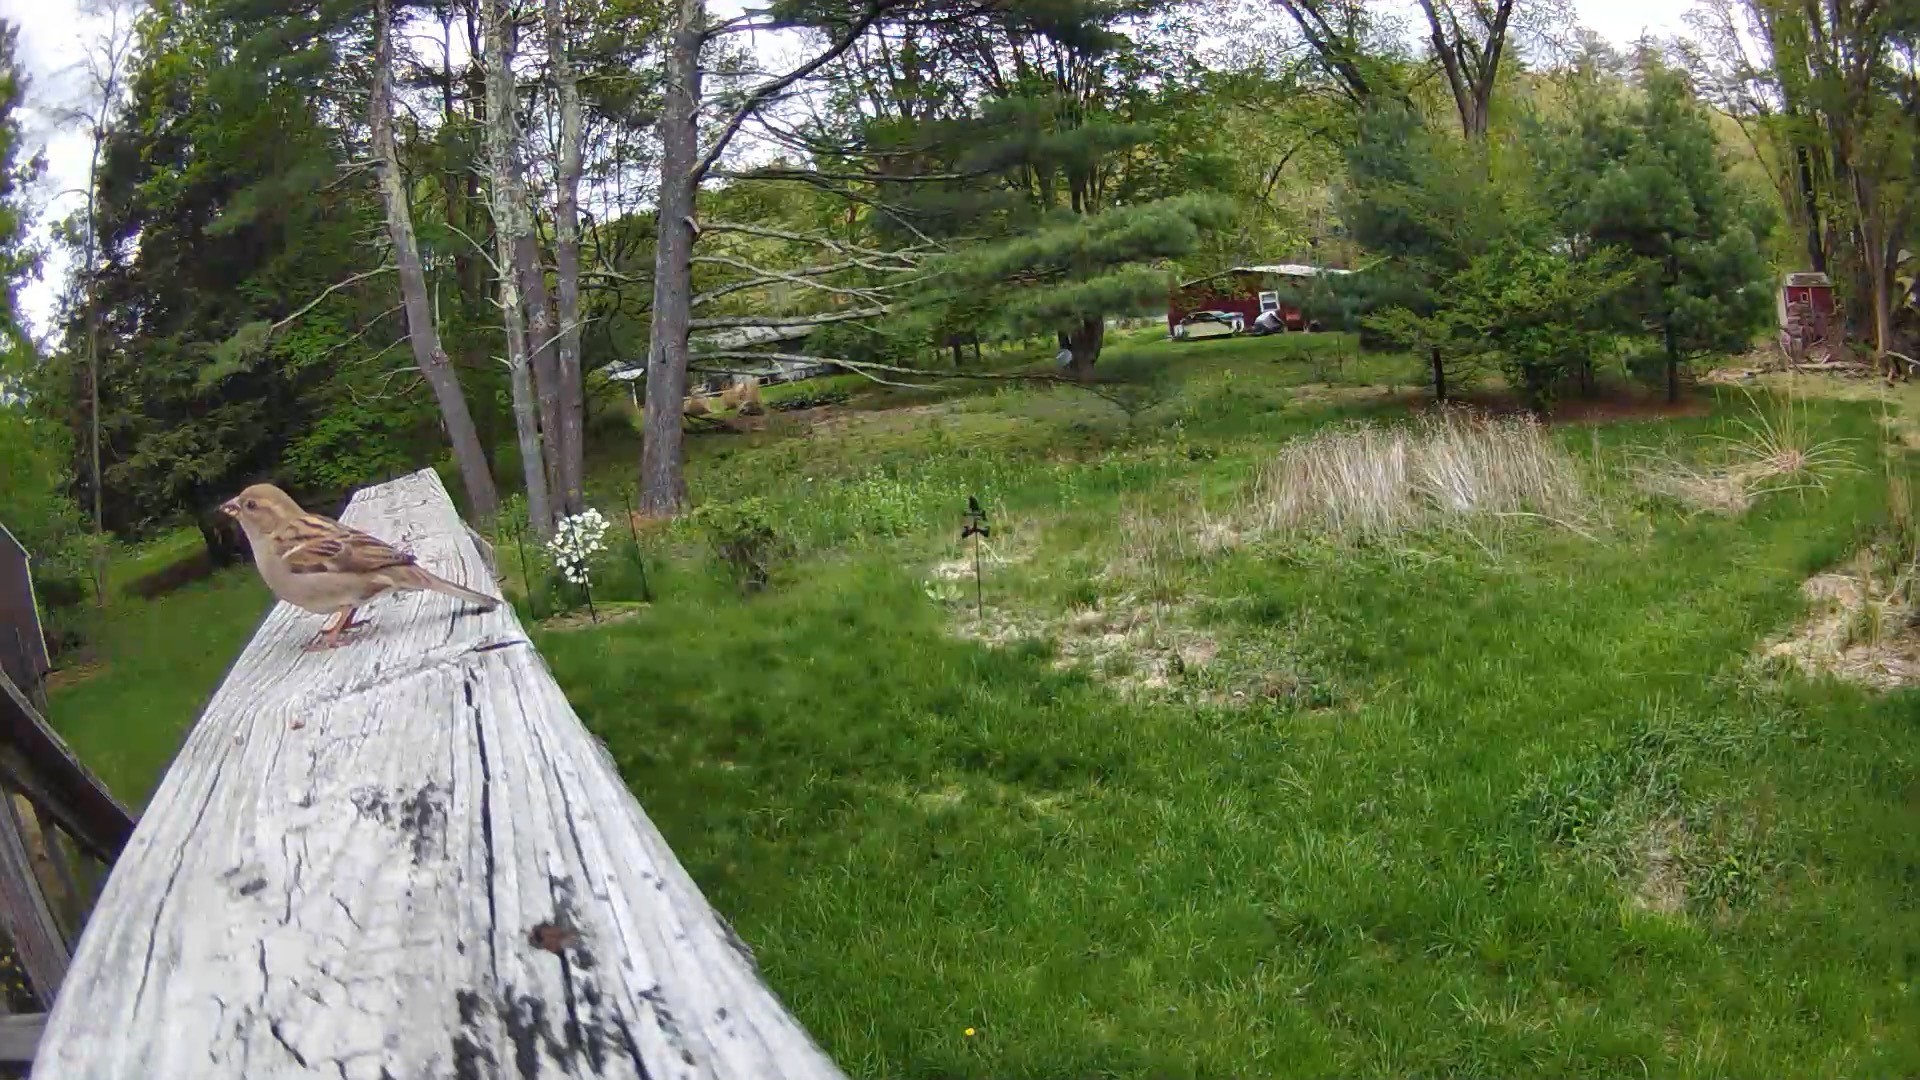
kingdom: Animalia
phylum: Chordata
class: Aves
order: Passeriformes
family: Passeridae
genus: Passer
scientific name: Passer domesticus
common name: House sparrow
